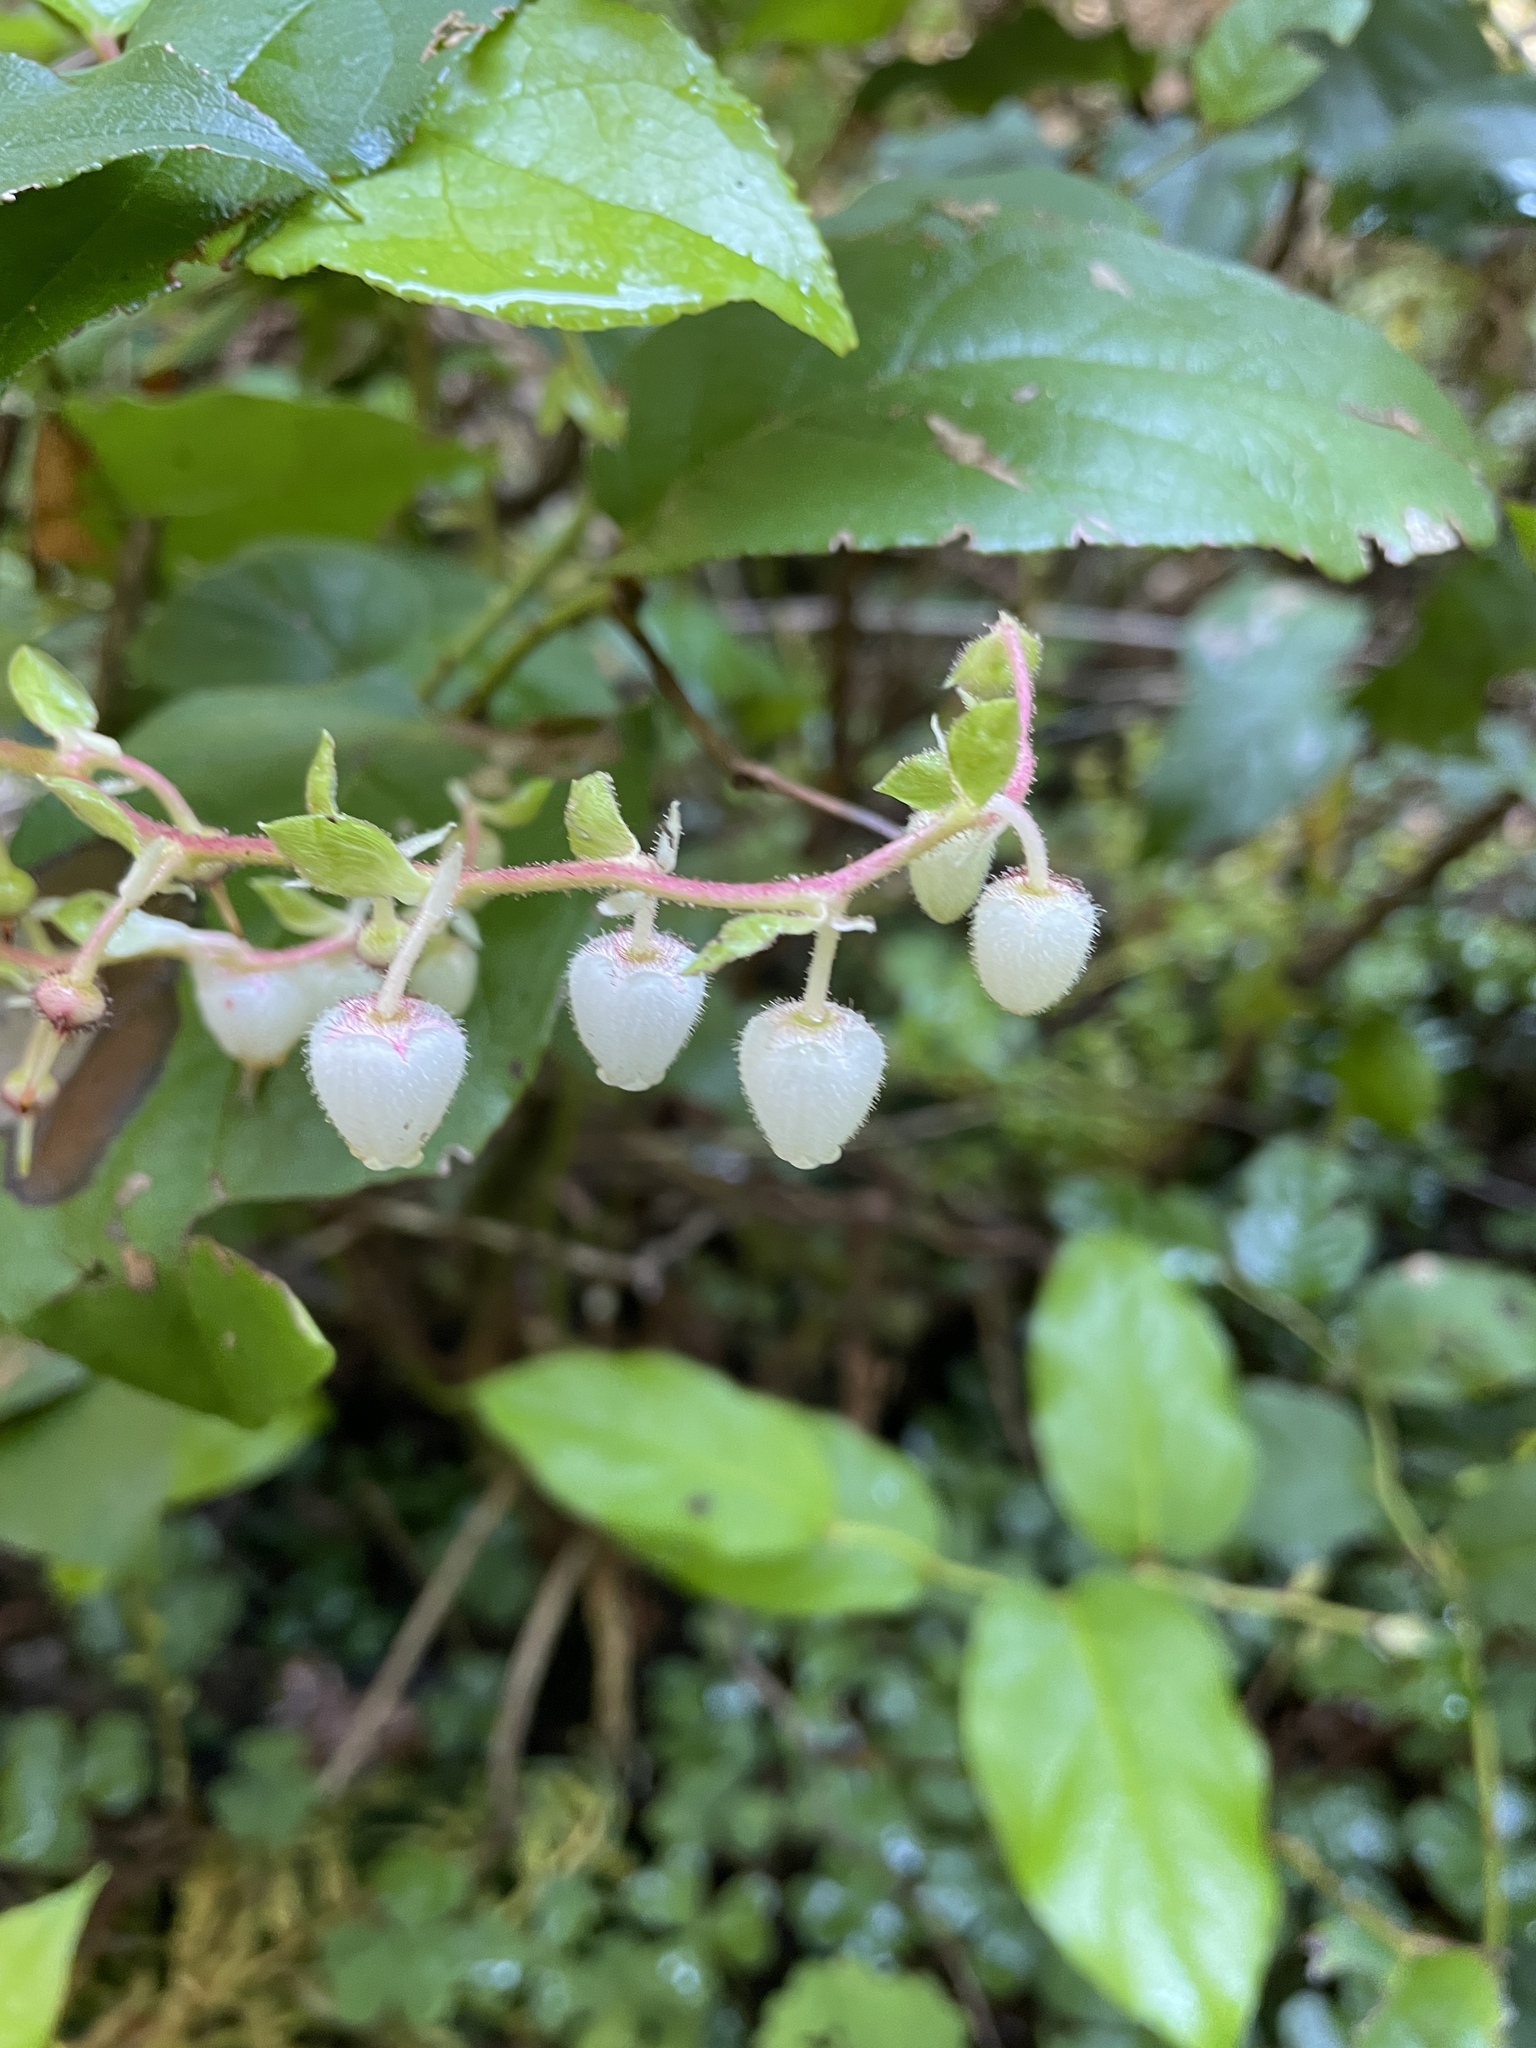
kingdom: Plantae
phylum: Tracheophyta
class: Magnoliopsida
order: Ericales
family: Ericaceae
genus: Gaultheria
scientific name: Gaultheria shallon
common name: Shallon
